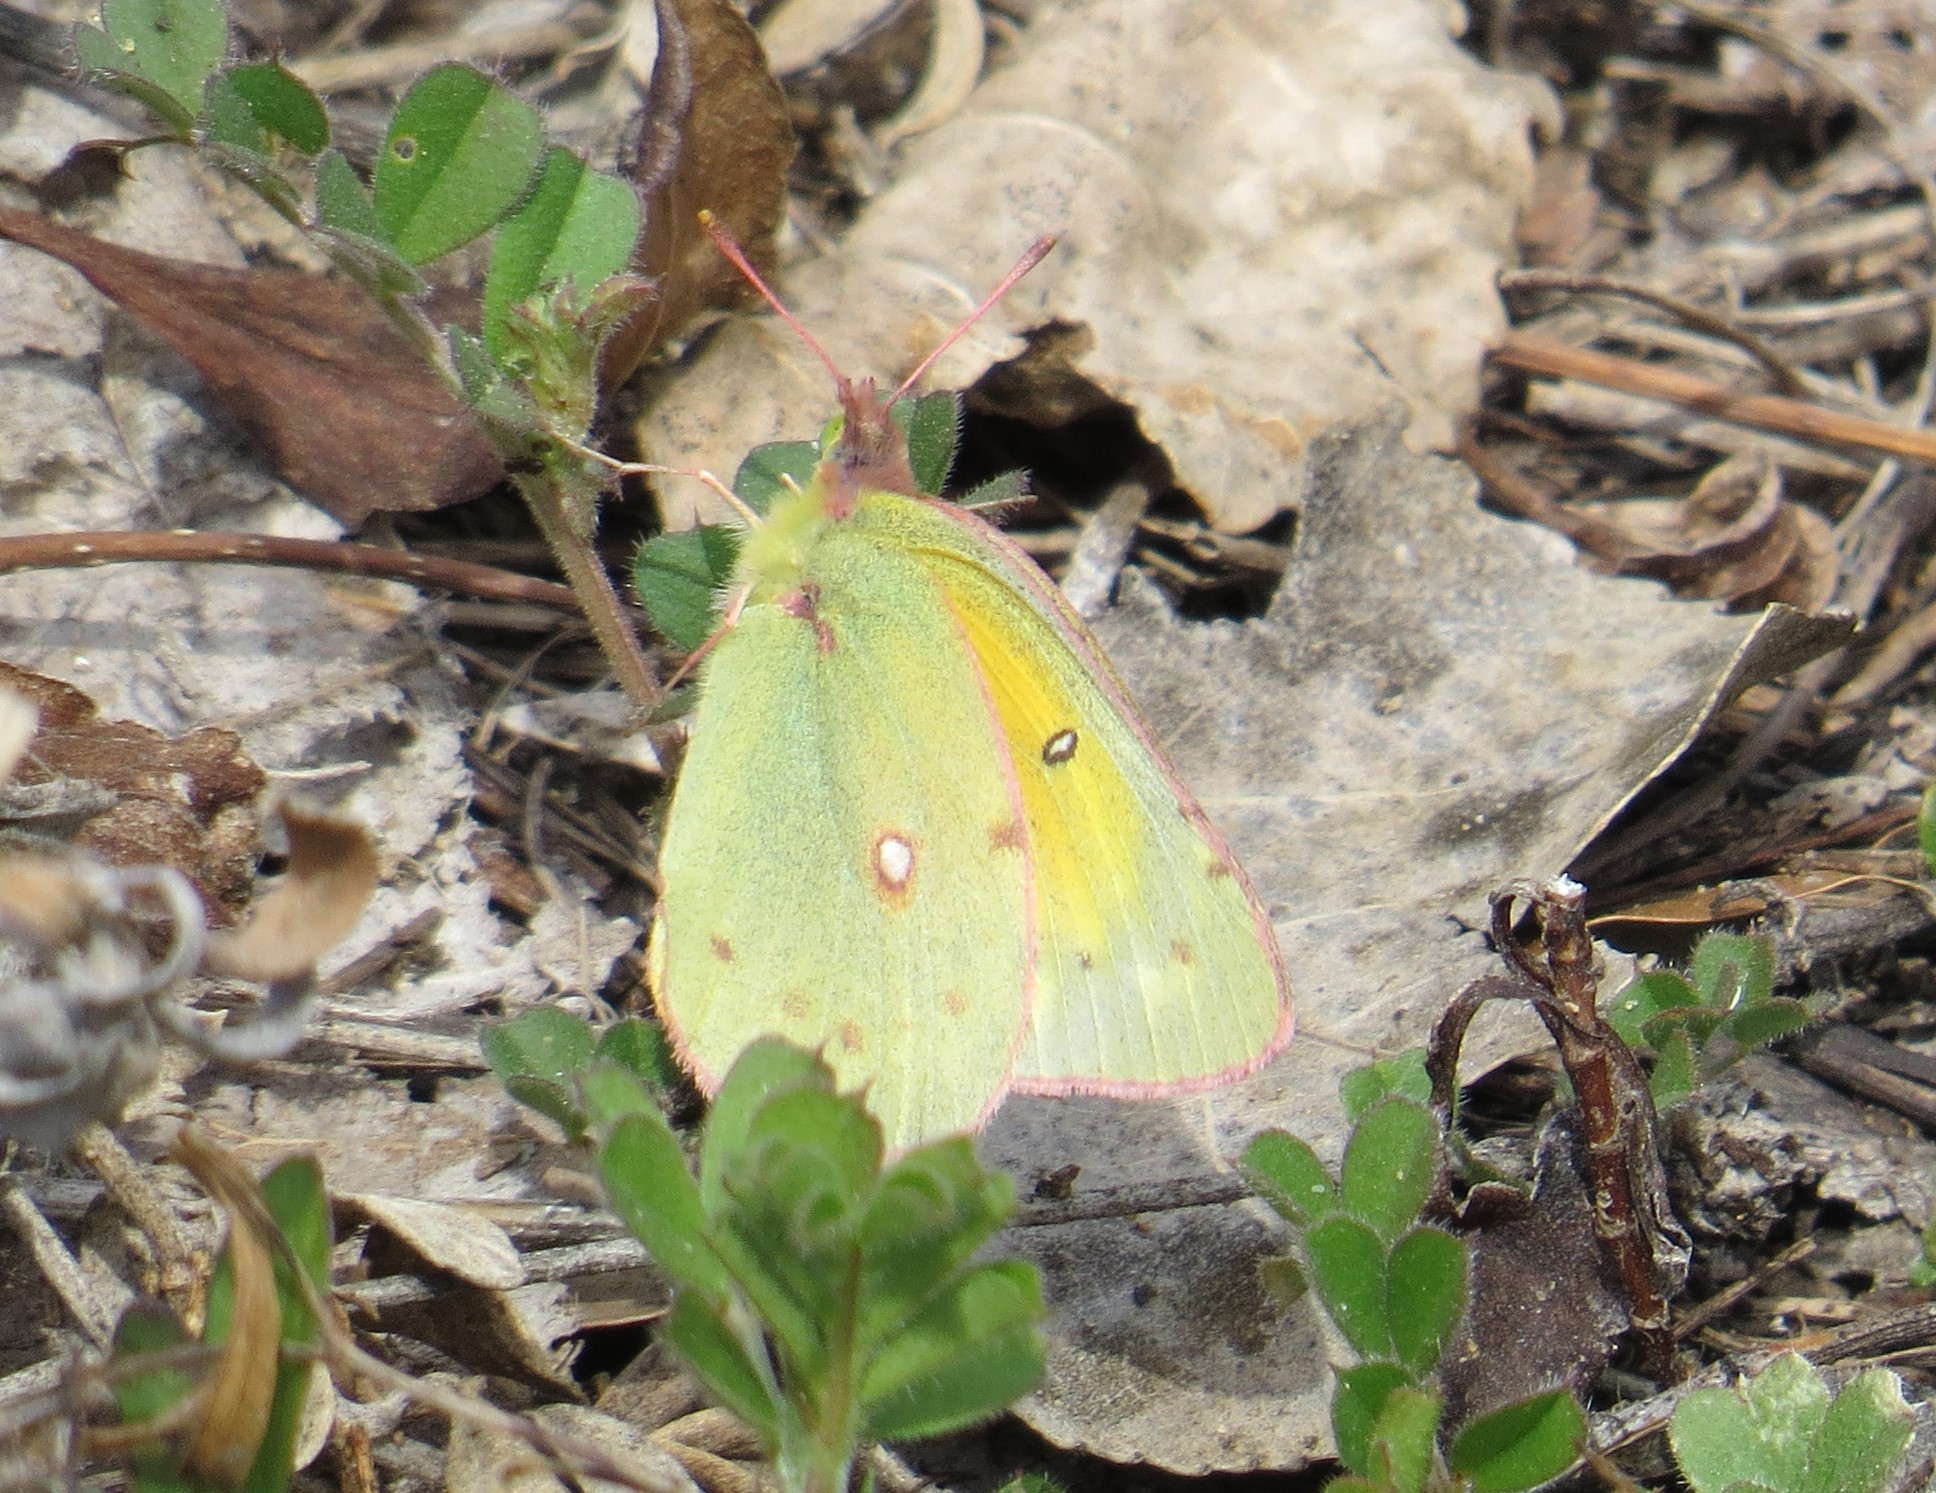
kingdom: Animalia
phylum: Arthropoda
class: Insecta
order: Lepidoptera
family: Pieridae
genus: Colias
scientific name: Colias eurytheme
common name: Alfalfa butterfly
